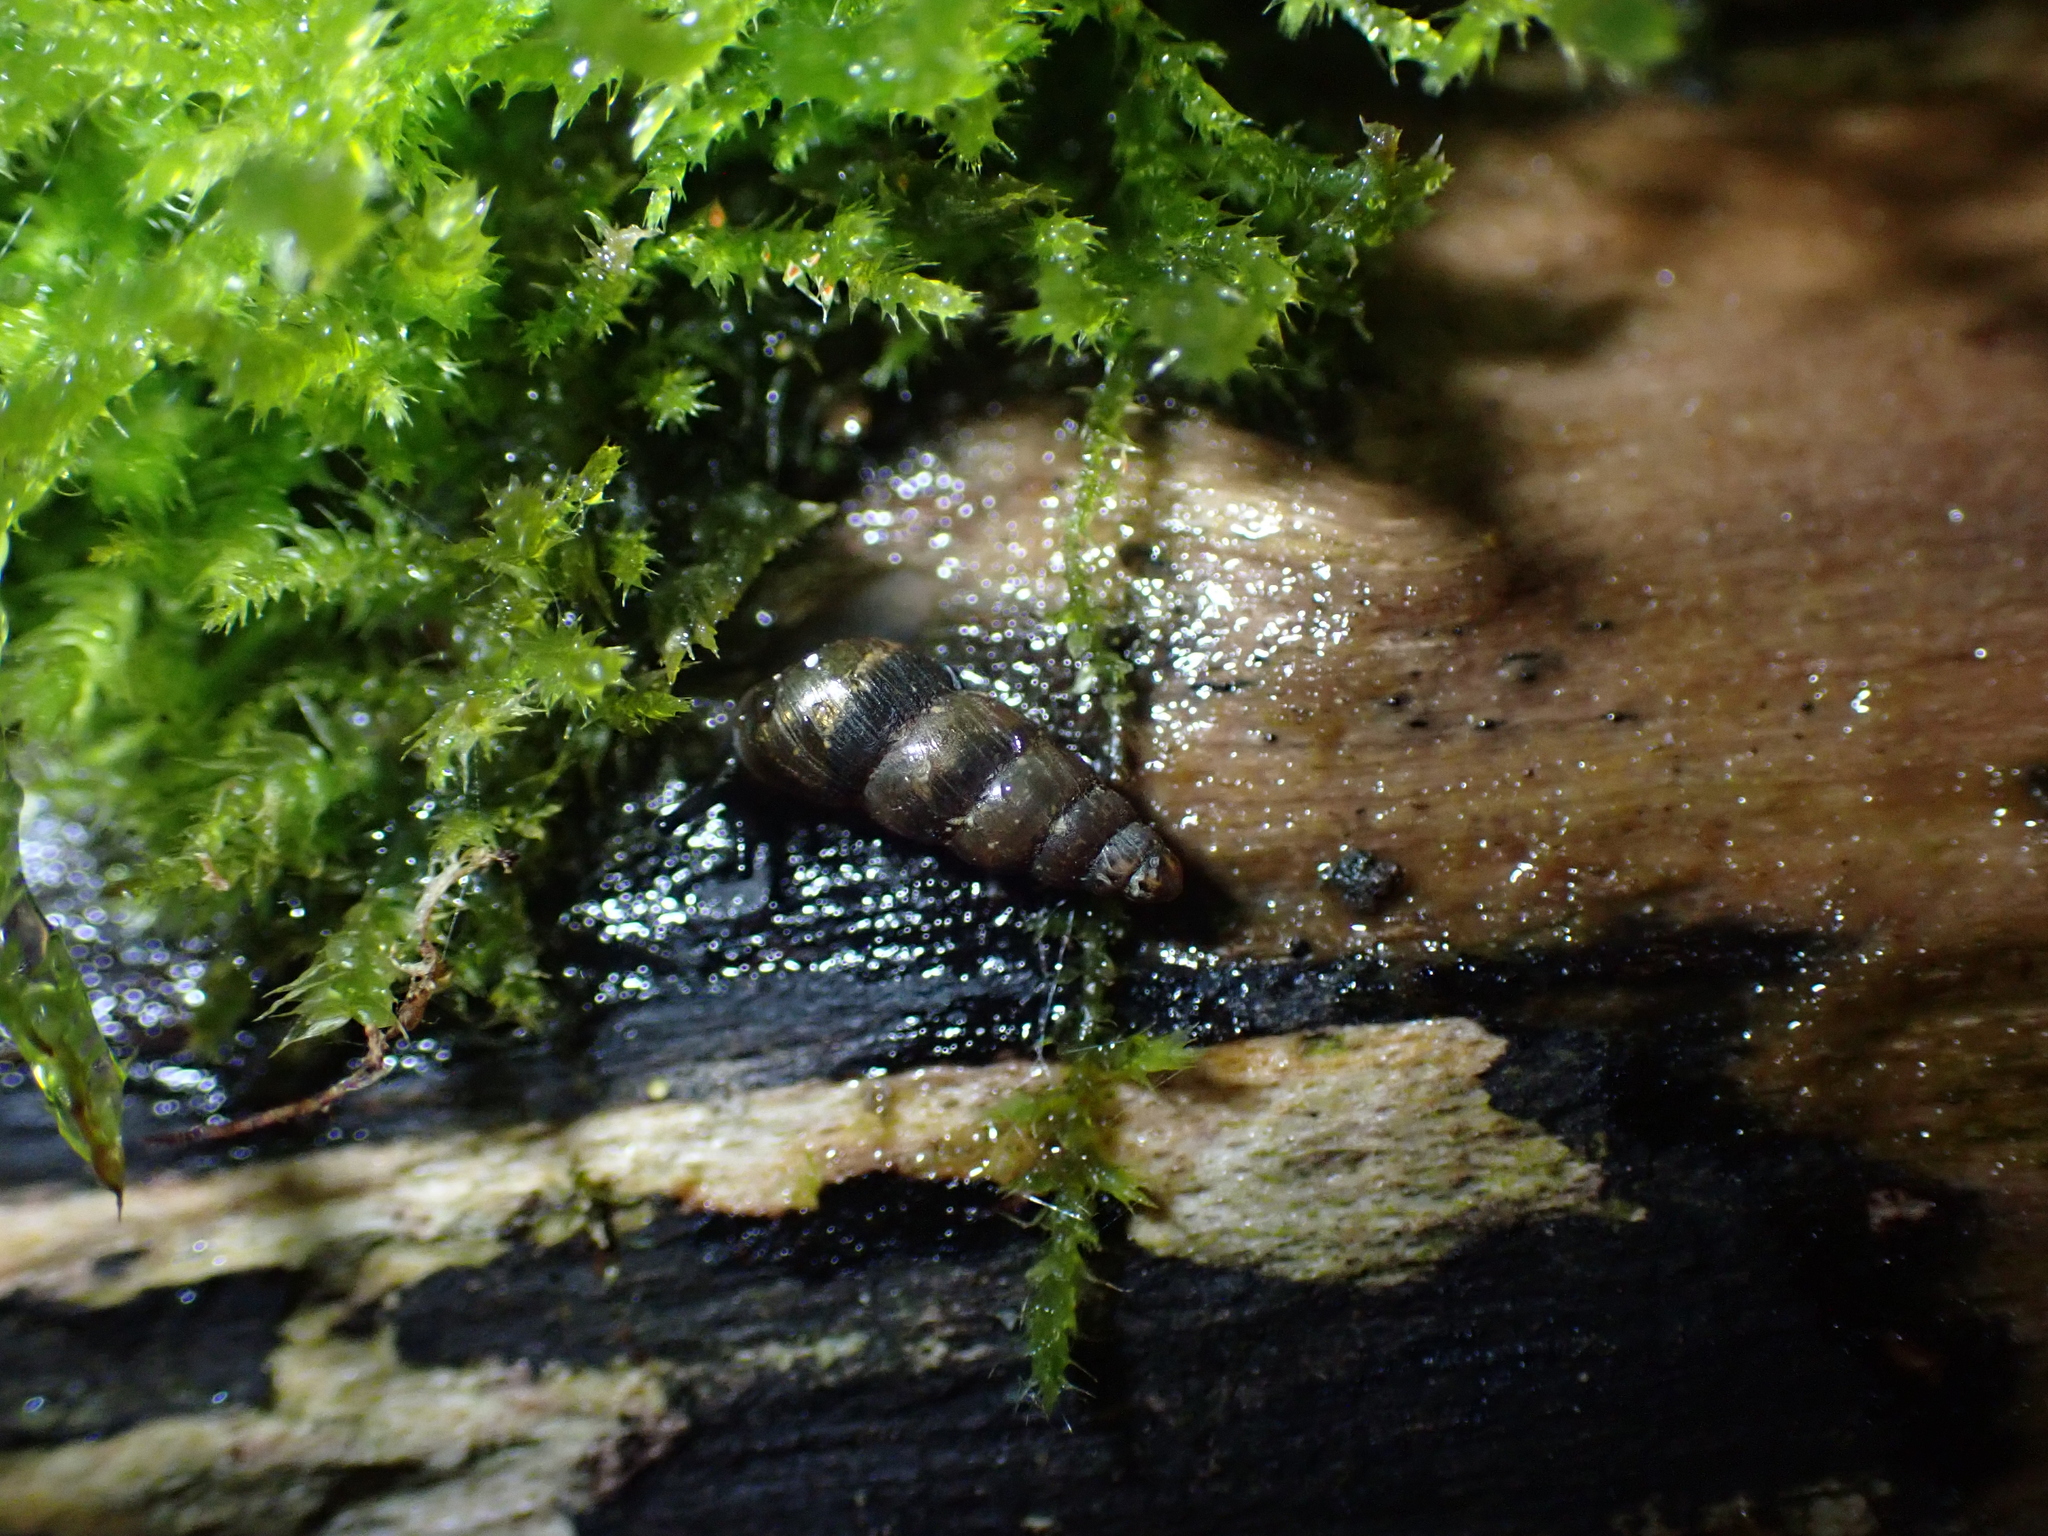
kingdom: Animalia
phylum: Mollusca
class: Gastropoda
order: Stylommatophora
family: Clausiliidae
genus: Balea
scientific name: Balea heydeni
